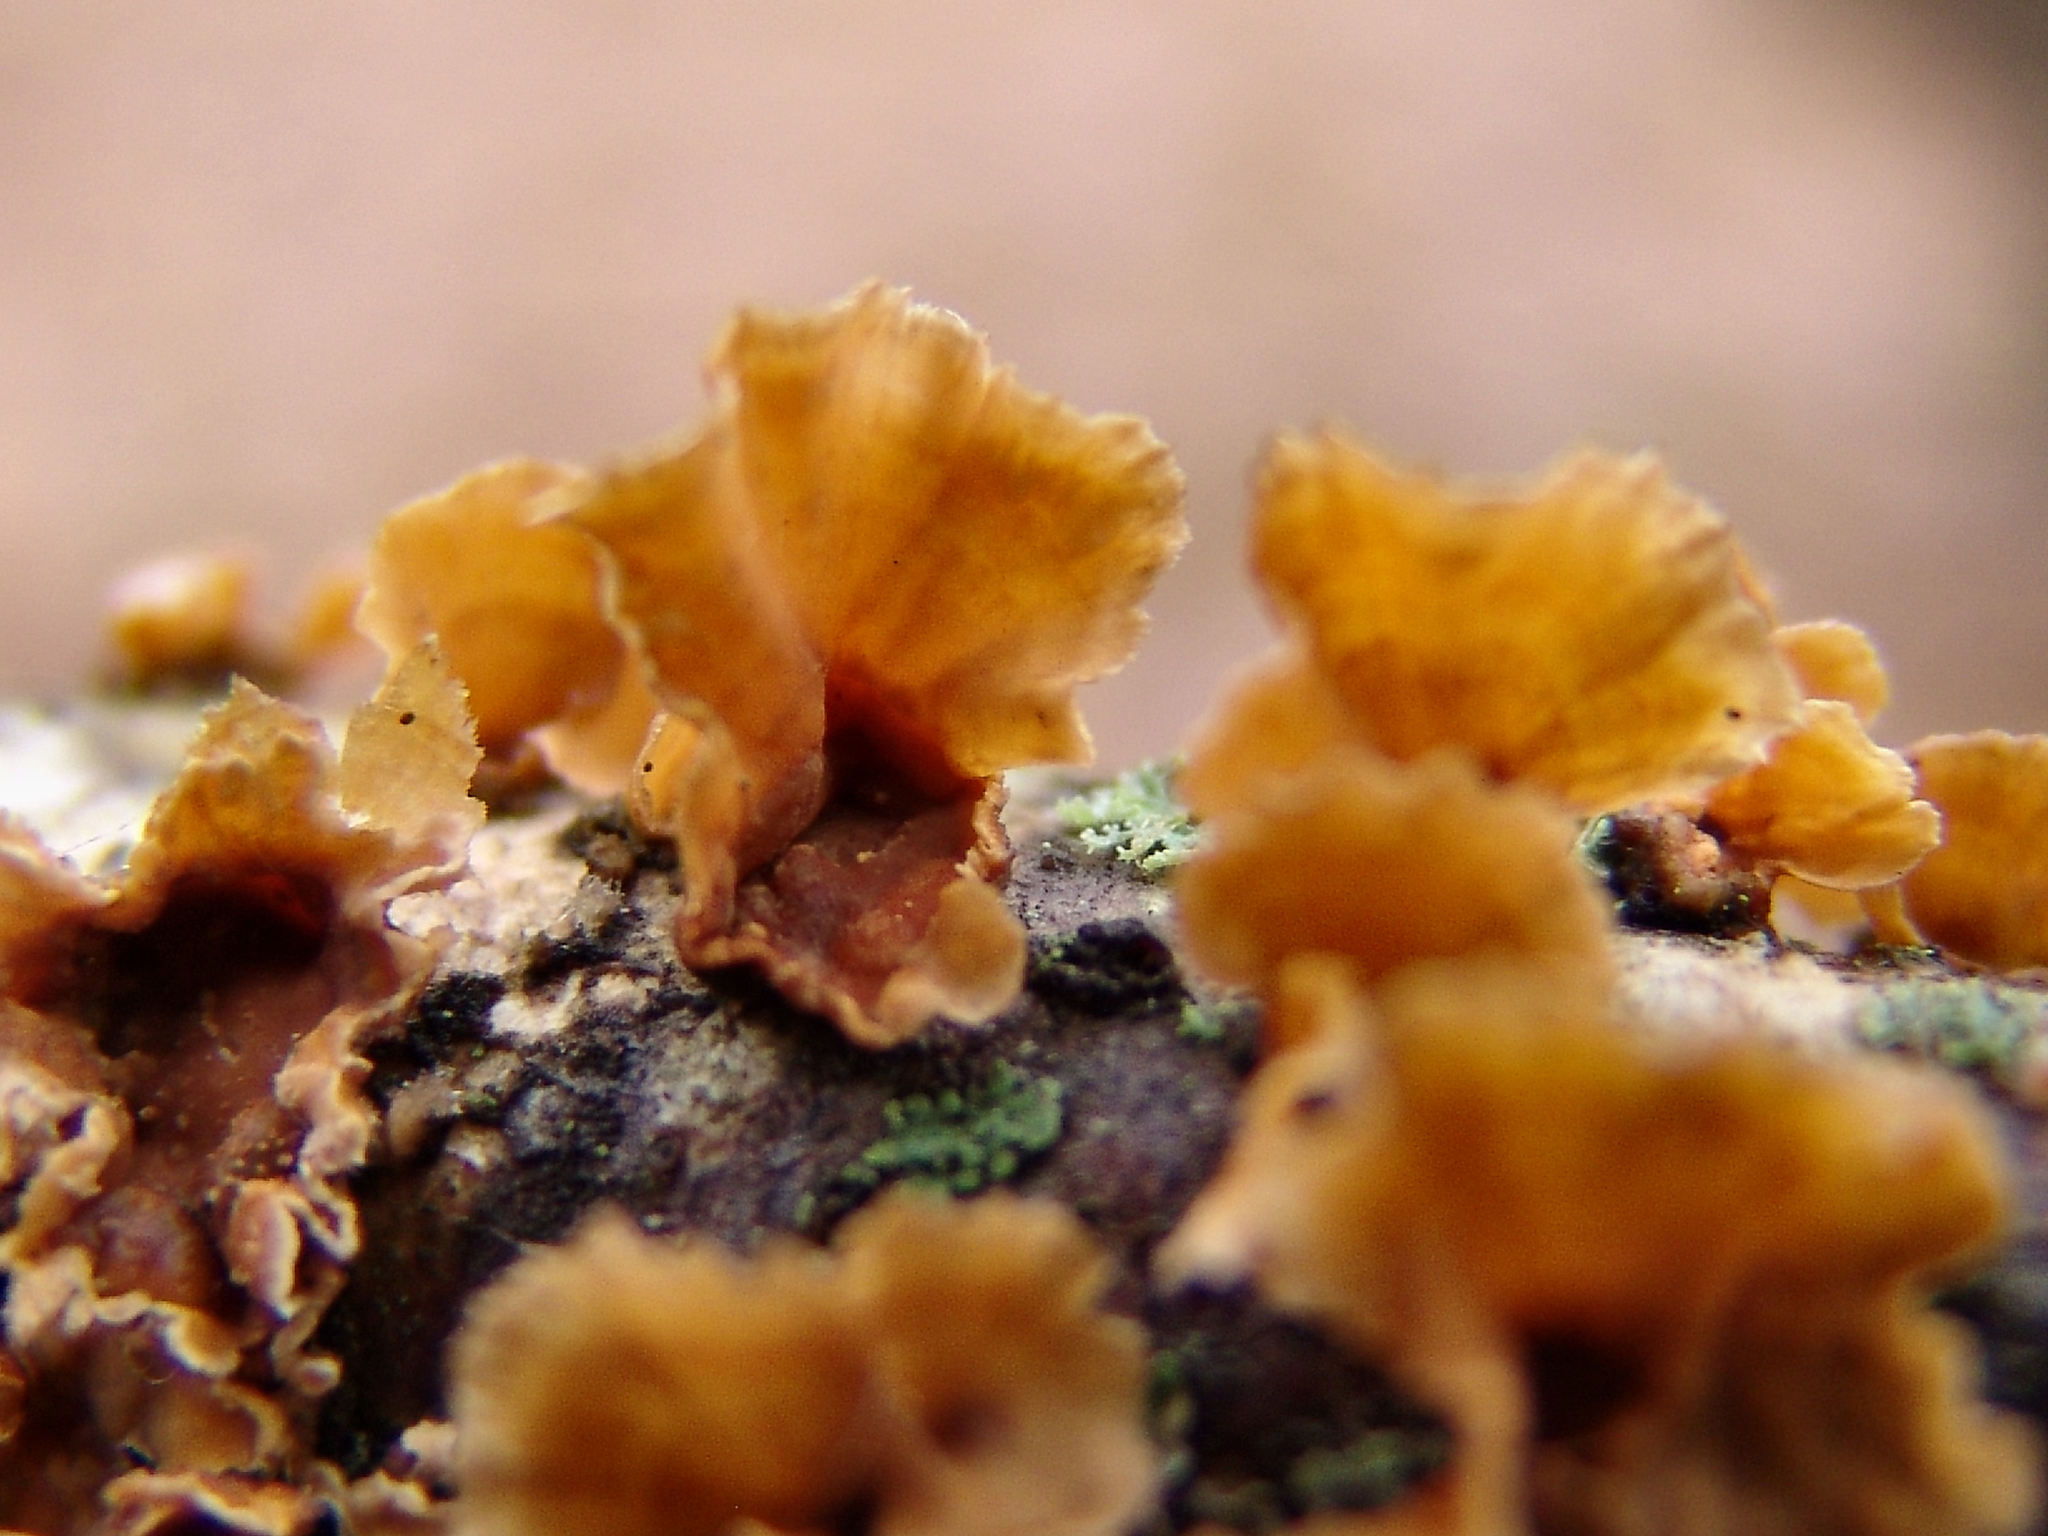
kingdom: Fungi
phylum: Basidiomycota
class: Agaricomycetes
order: Russulales
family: Stereaceae
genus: Stereum
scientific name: Stereum complicatum
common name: Crowded parchment
